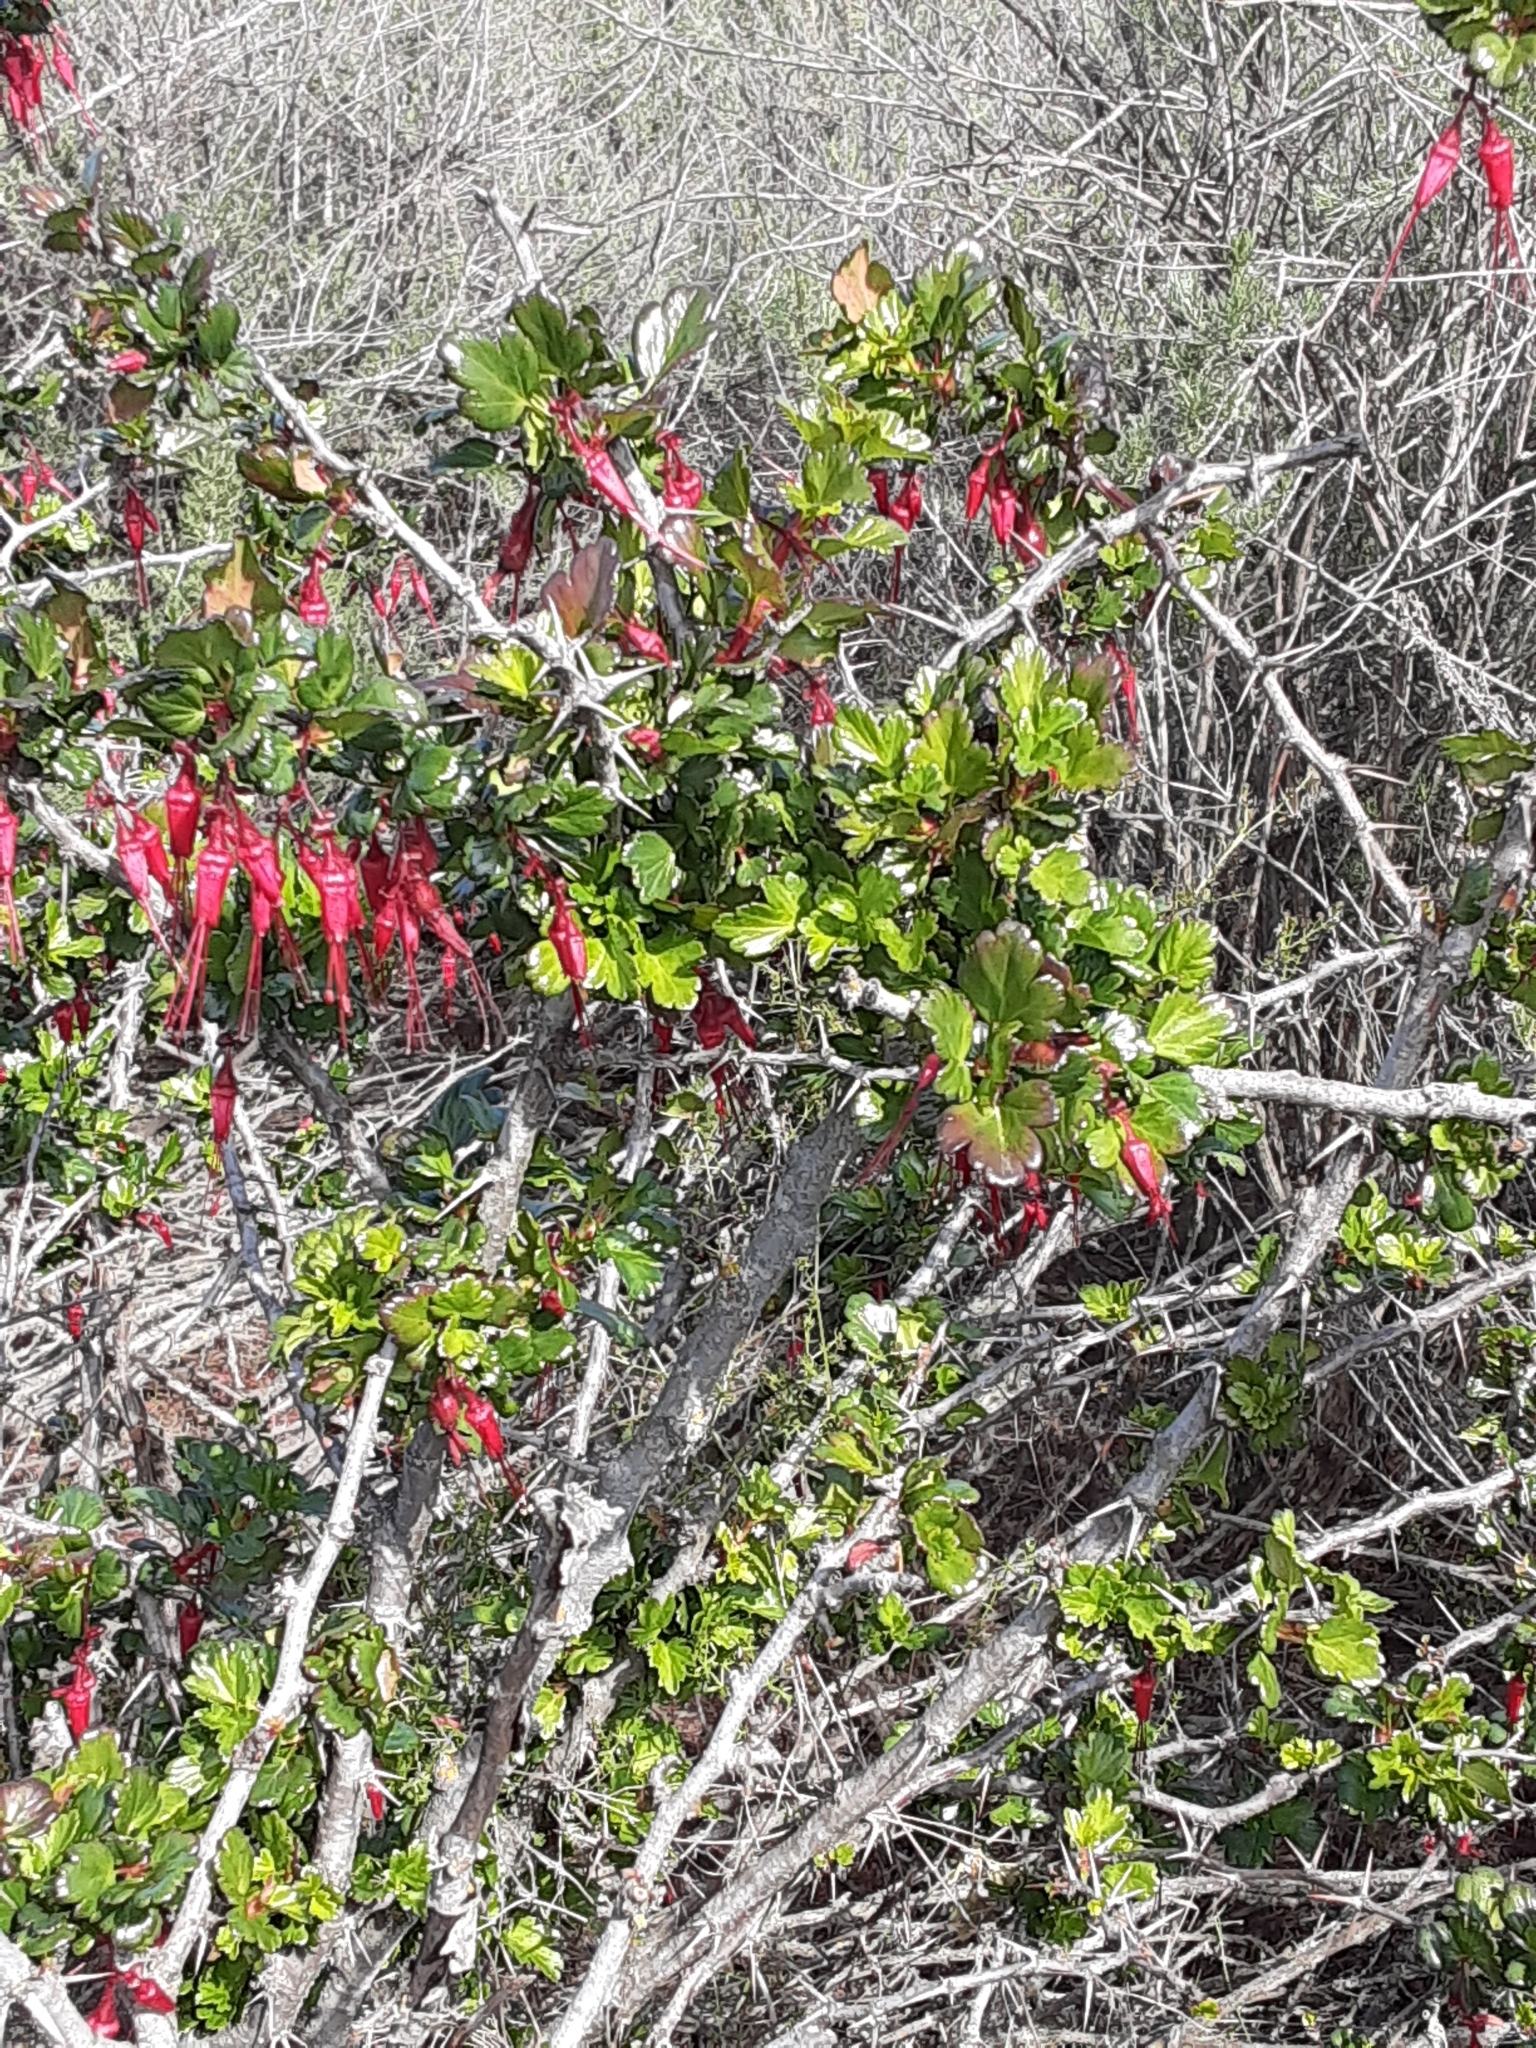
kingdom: Plantae
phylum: Tracheophyta
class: Magnoliopsida
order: Saxifragales
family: Grossulariaceae
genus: Ribes
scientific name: Ribes speciosum
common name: Fuchsia-flower gooseberry
